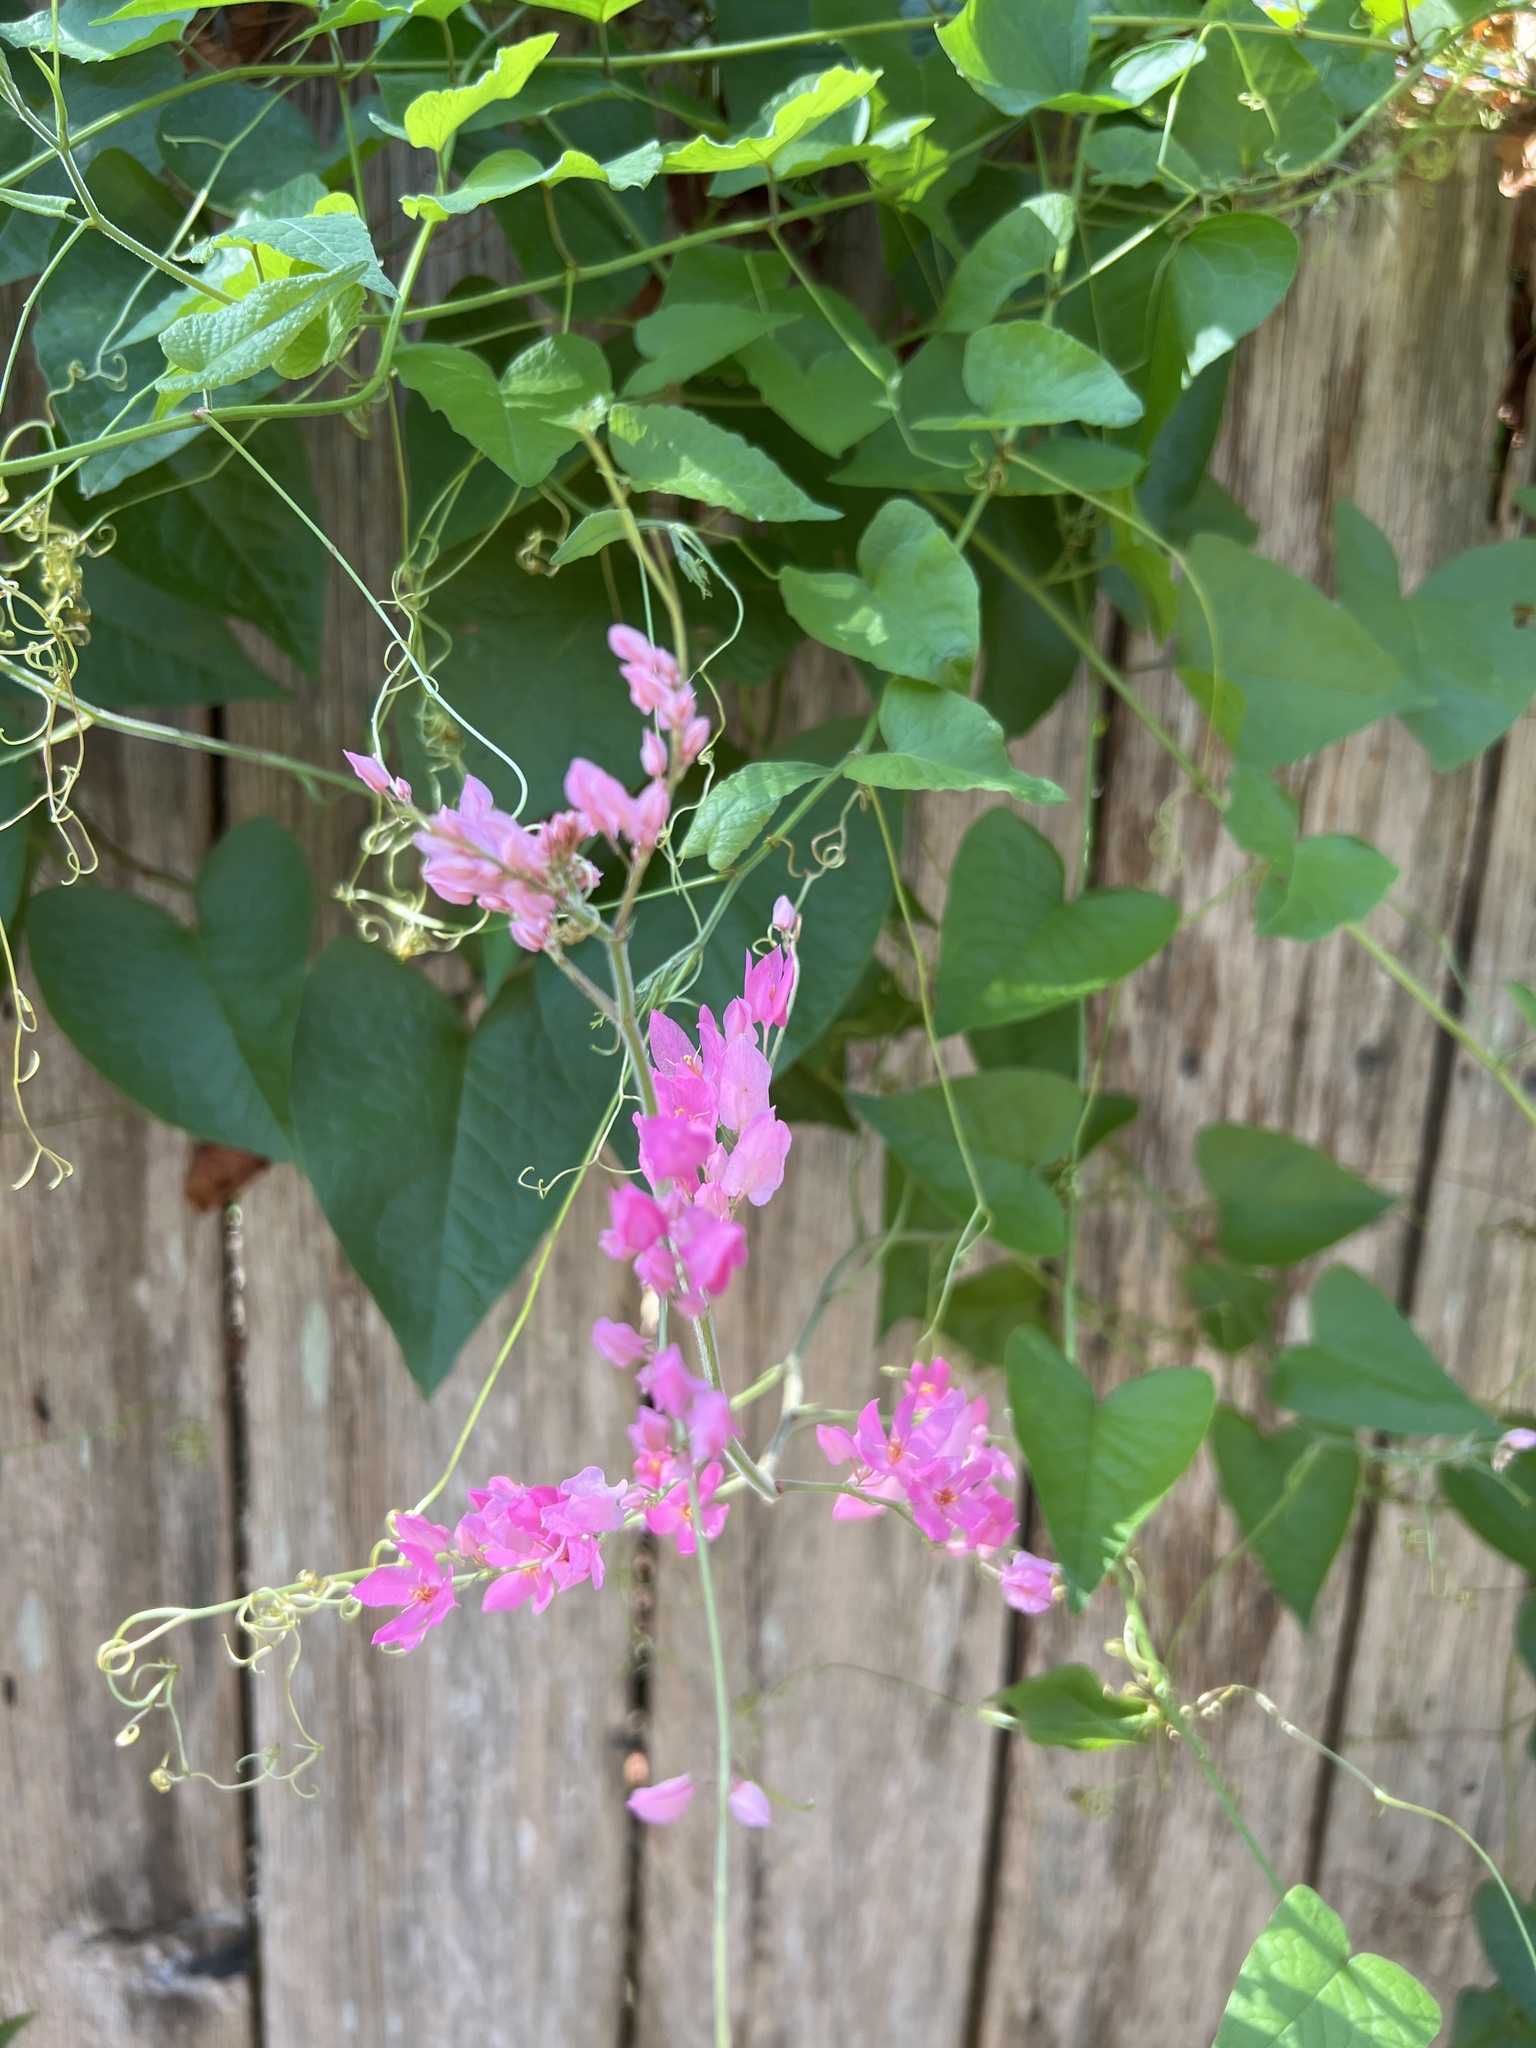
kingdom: Plantae
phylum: Tracheophyta
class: Magnoliopsida
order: Caryophyllales
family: Polygonaceae
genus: Antigonon
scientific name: Antigonon leptopus
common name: Coral vine
